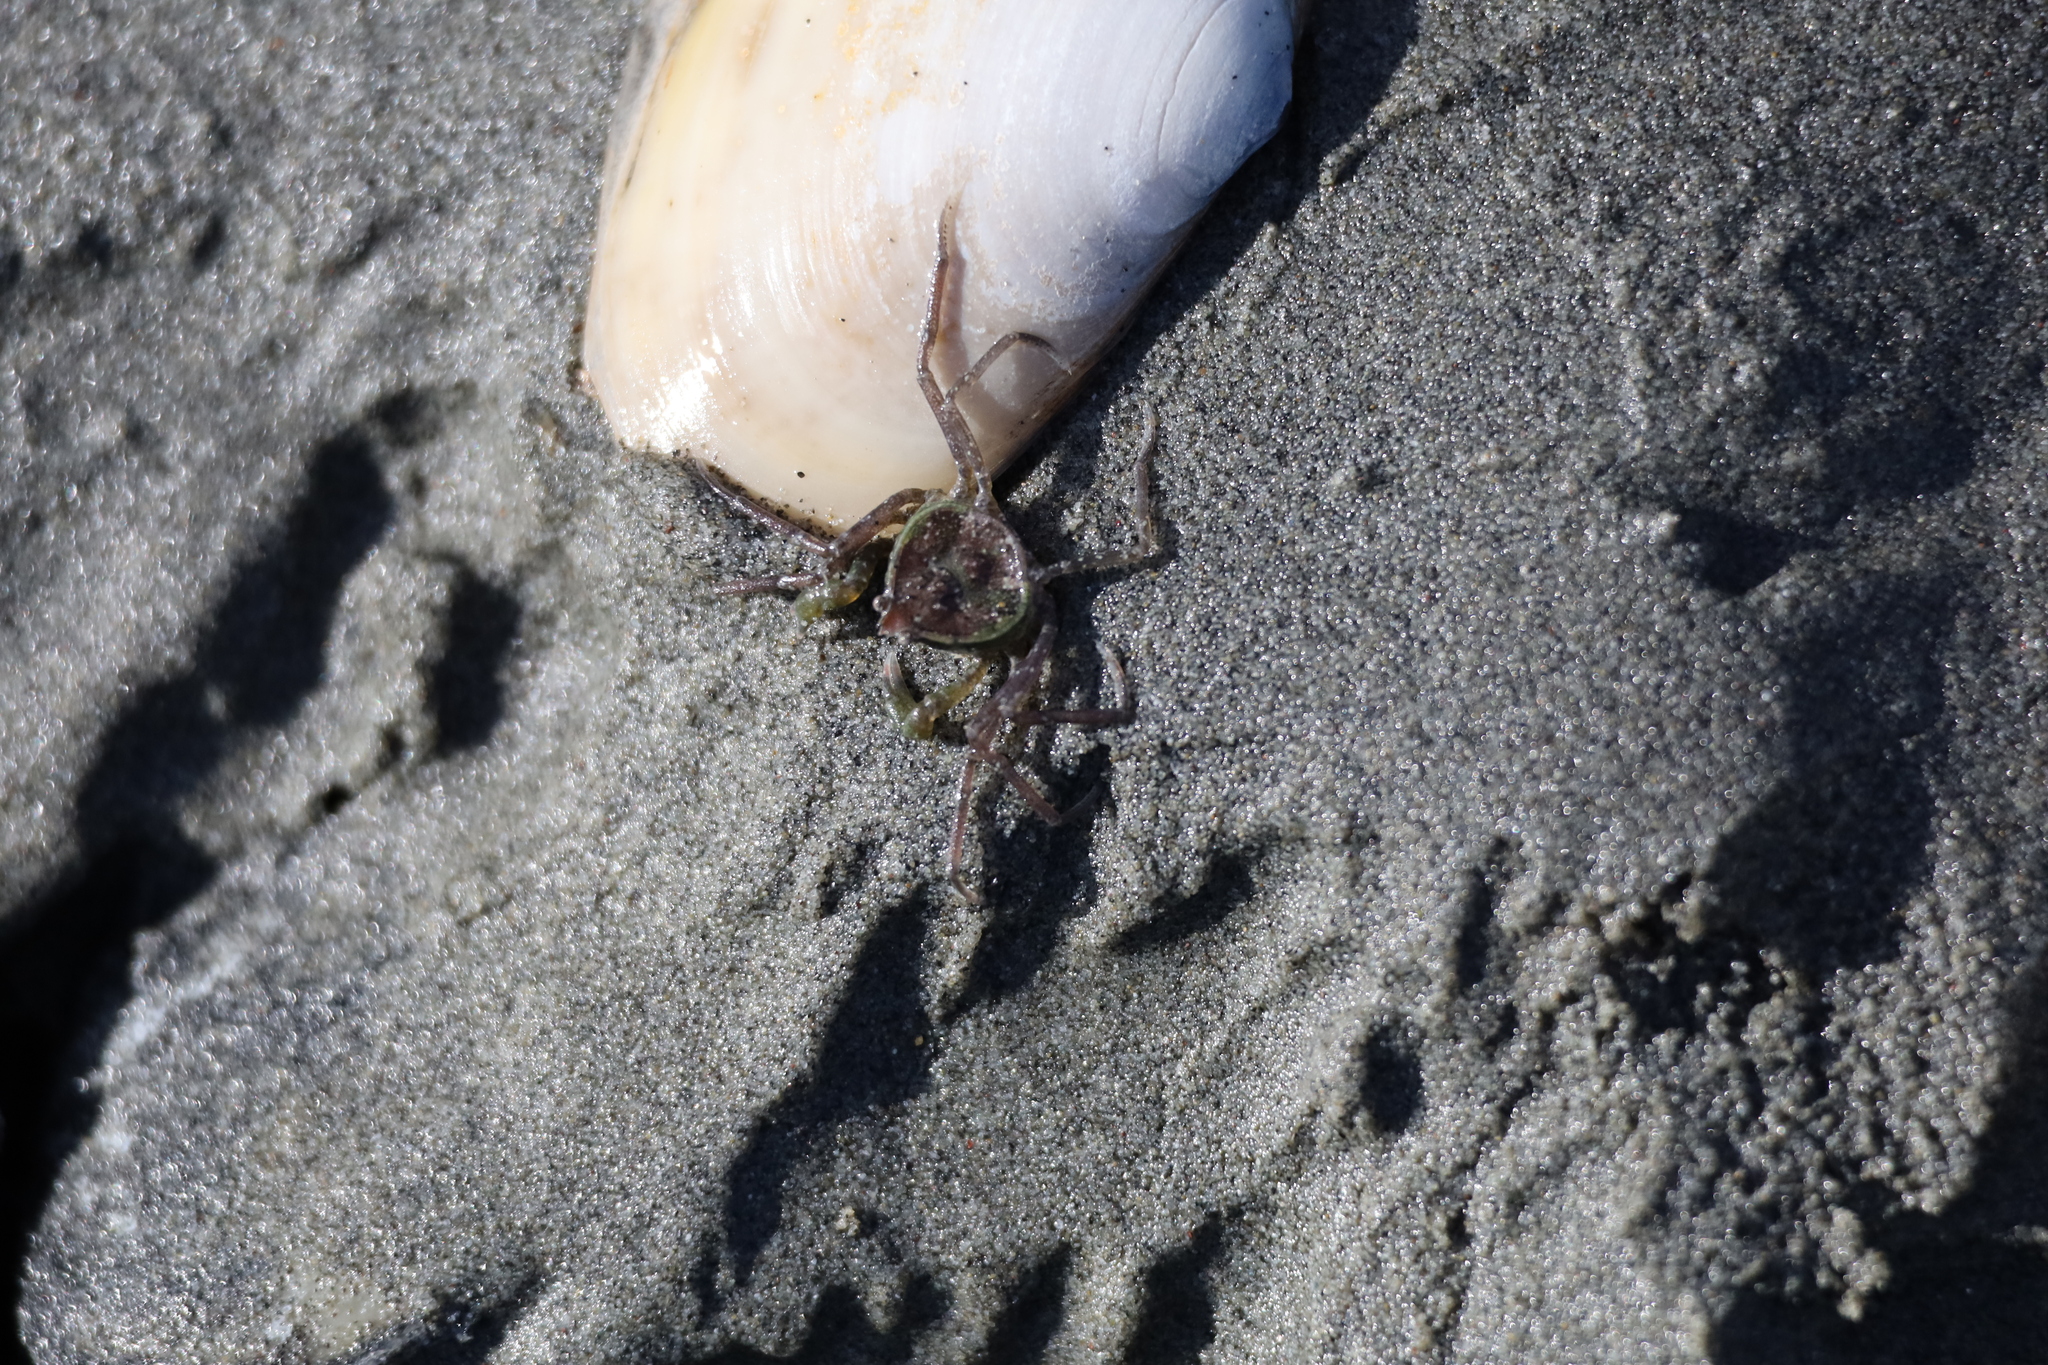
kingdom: Animalia
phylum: Arthropoda
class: Malacostraca
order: Decapoda
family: Hymenosomatidae
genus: Halicarcinus
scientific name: Halicarcinus whitei
